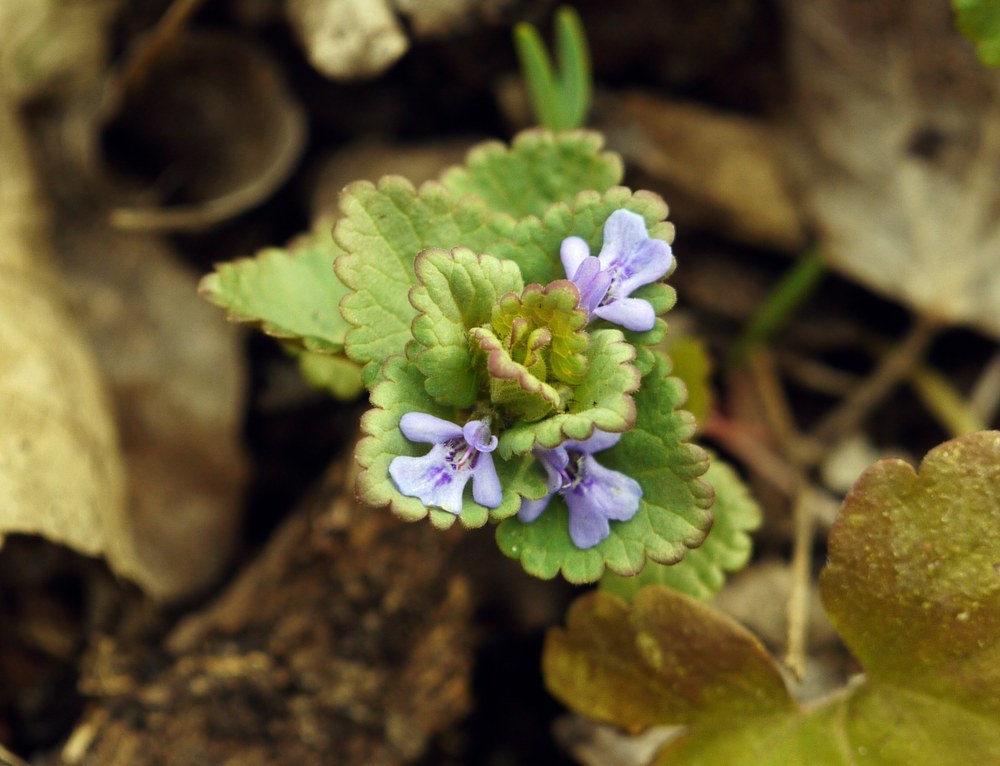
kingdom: Plantae
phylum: Tracheophyta
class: Magnoliopsida
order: Lamiales
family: Lamiaceae
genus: Glechoma
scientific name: Glechoma hederacea
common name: Ground ivy
